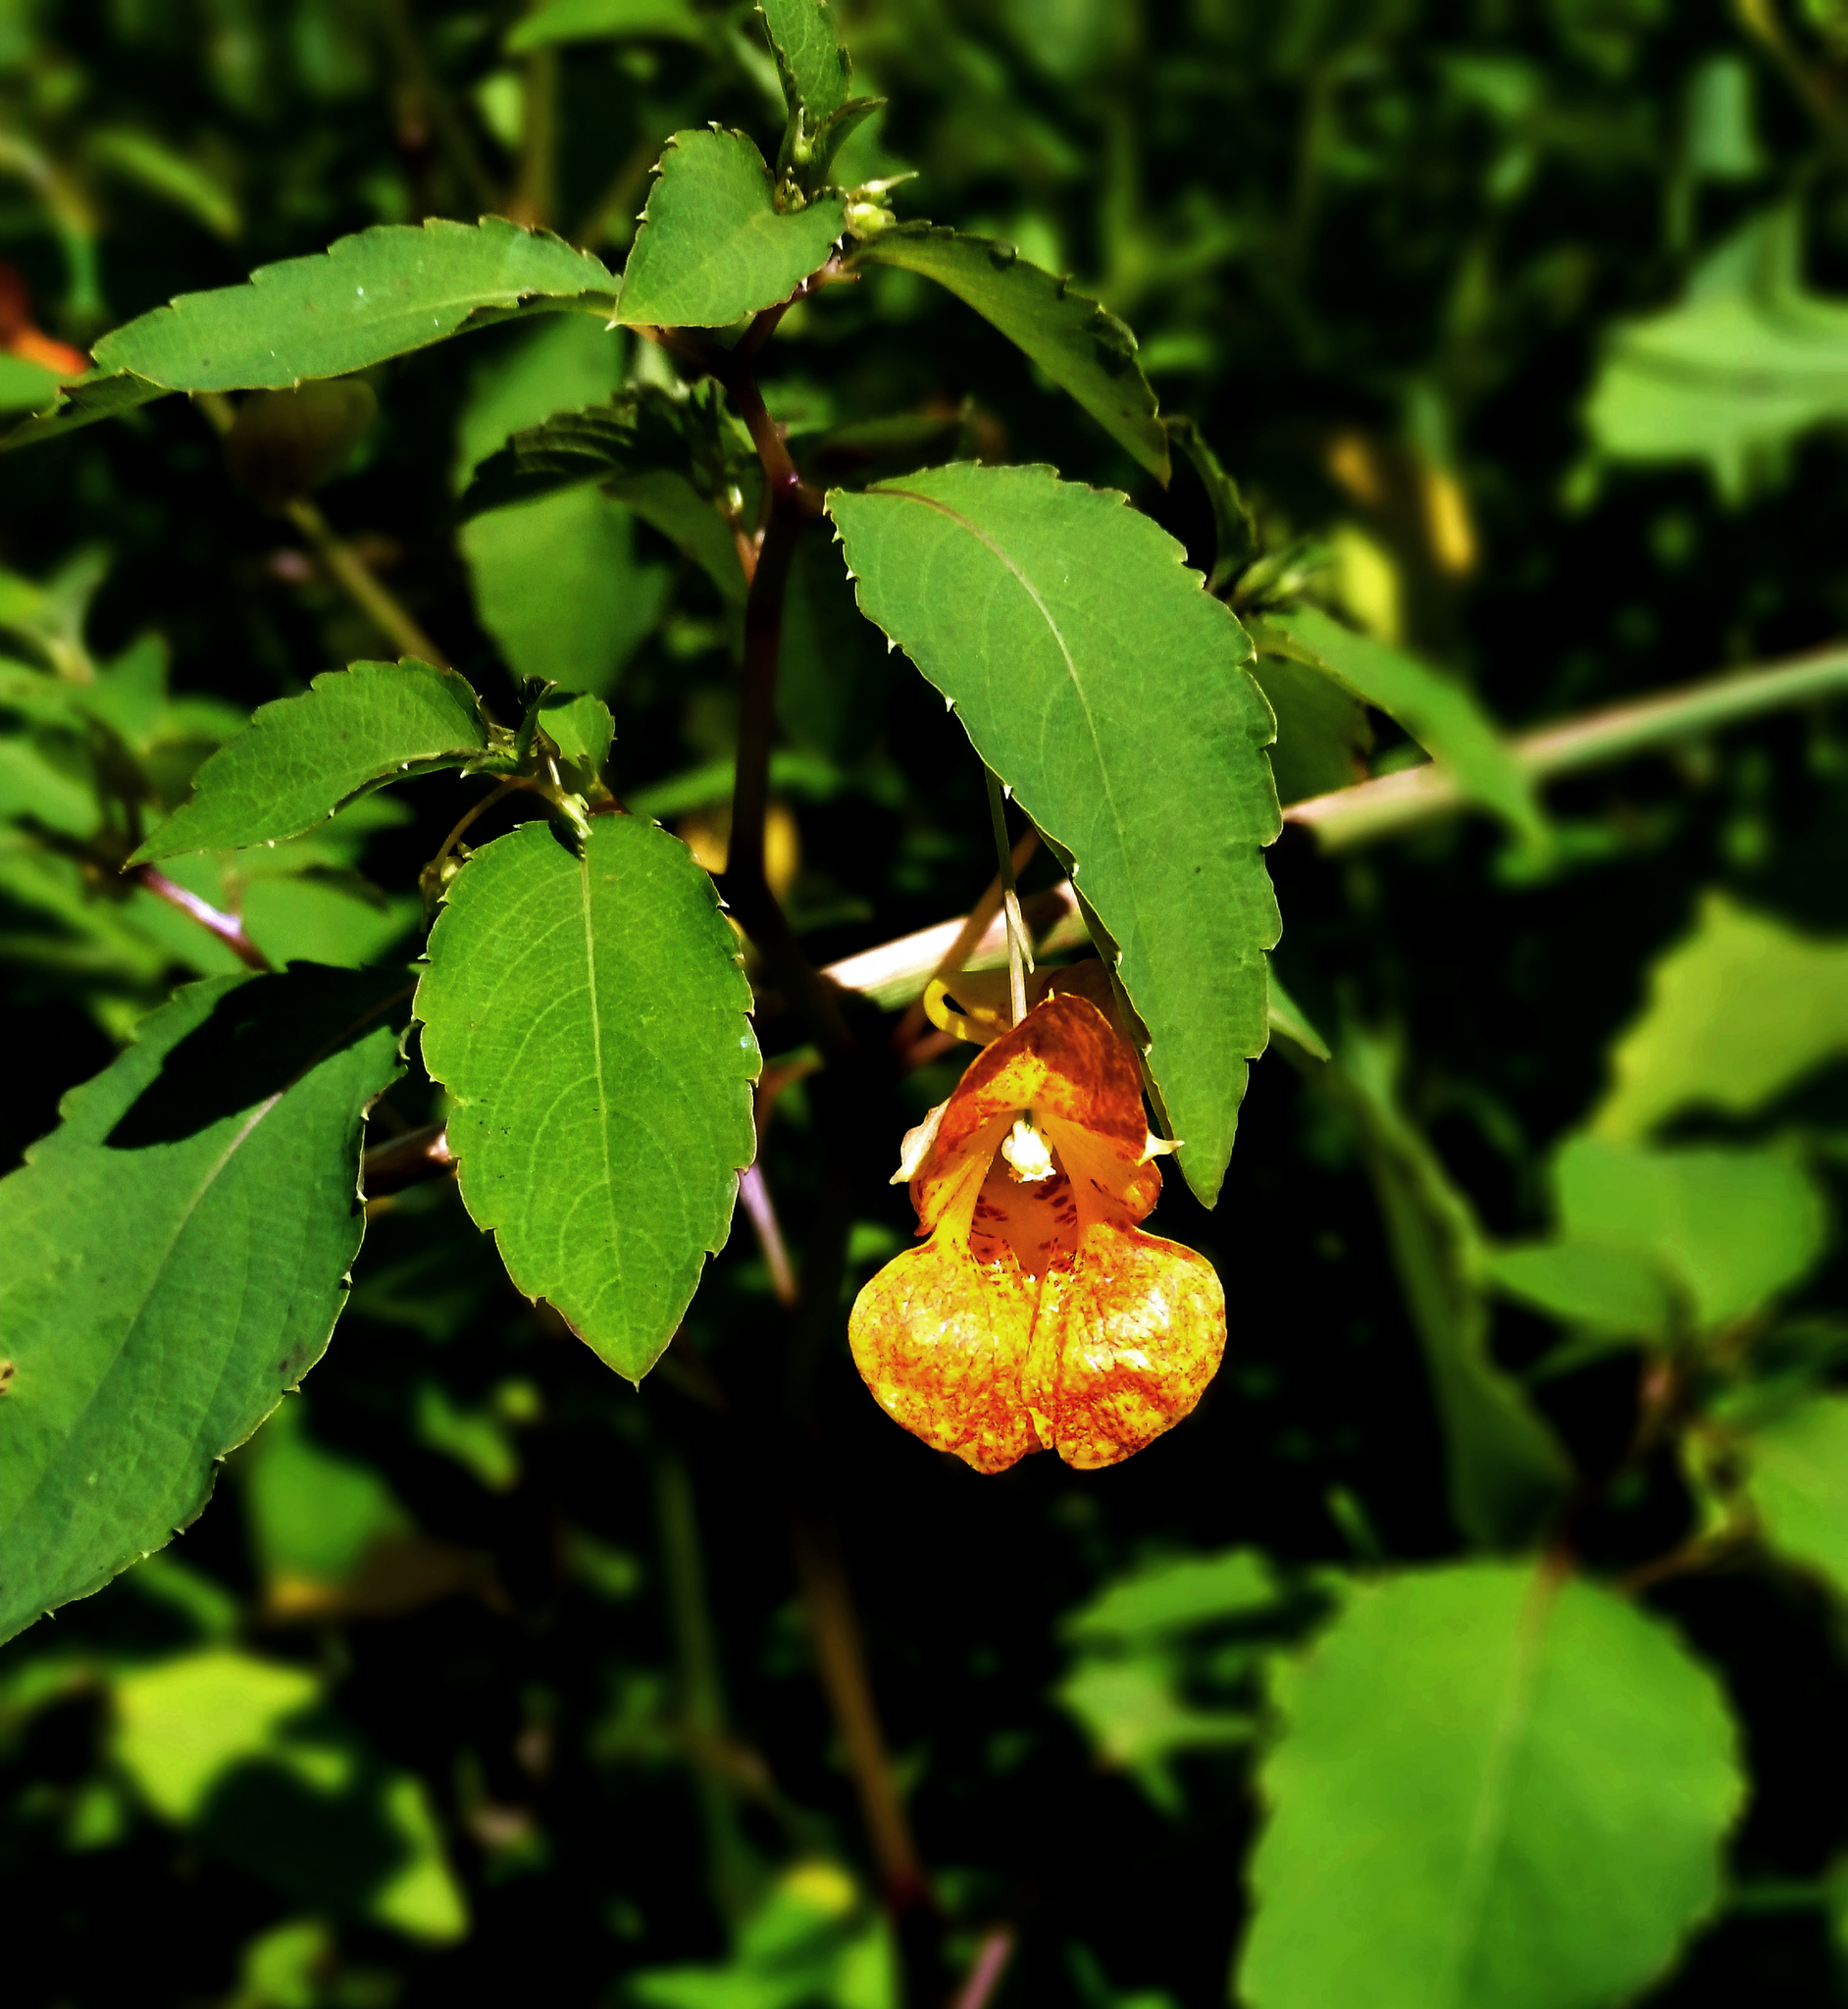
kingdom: Plantae
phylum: Tracheophyta
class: Magnoliopsida
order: Ericales
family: Balsaminaceae
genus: Impatiens
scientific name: Impatiens capensis
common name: Orange balsam
